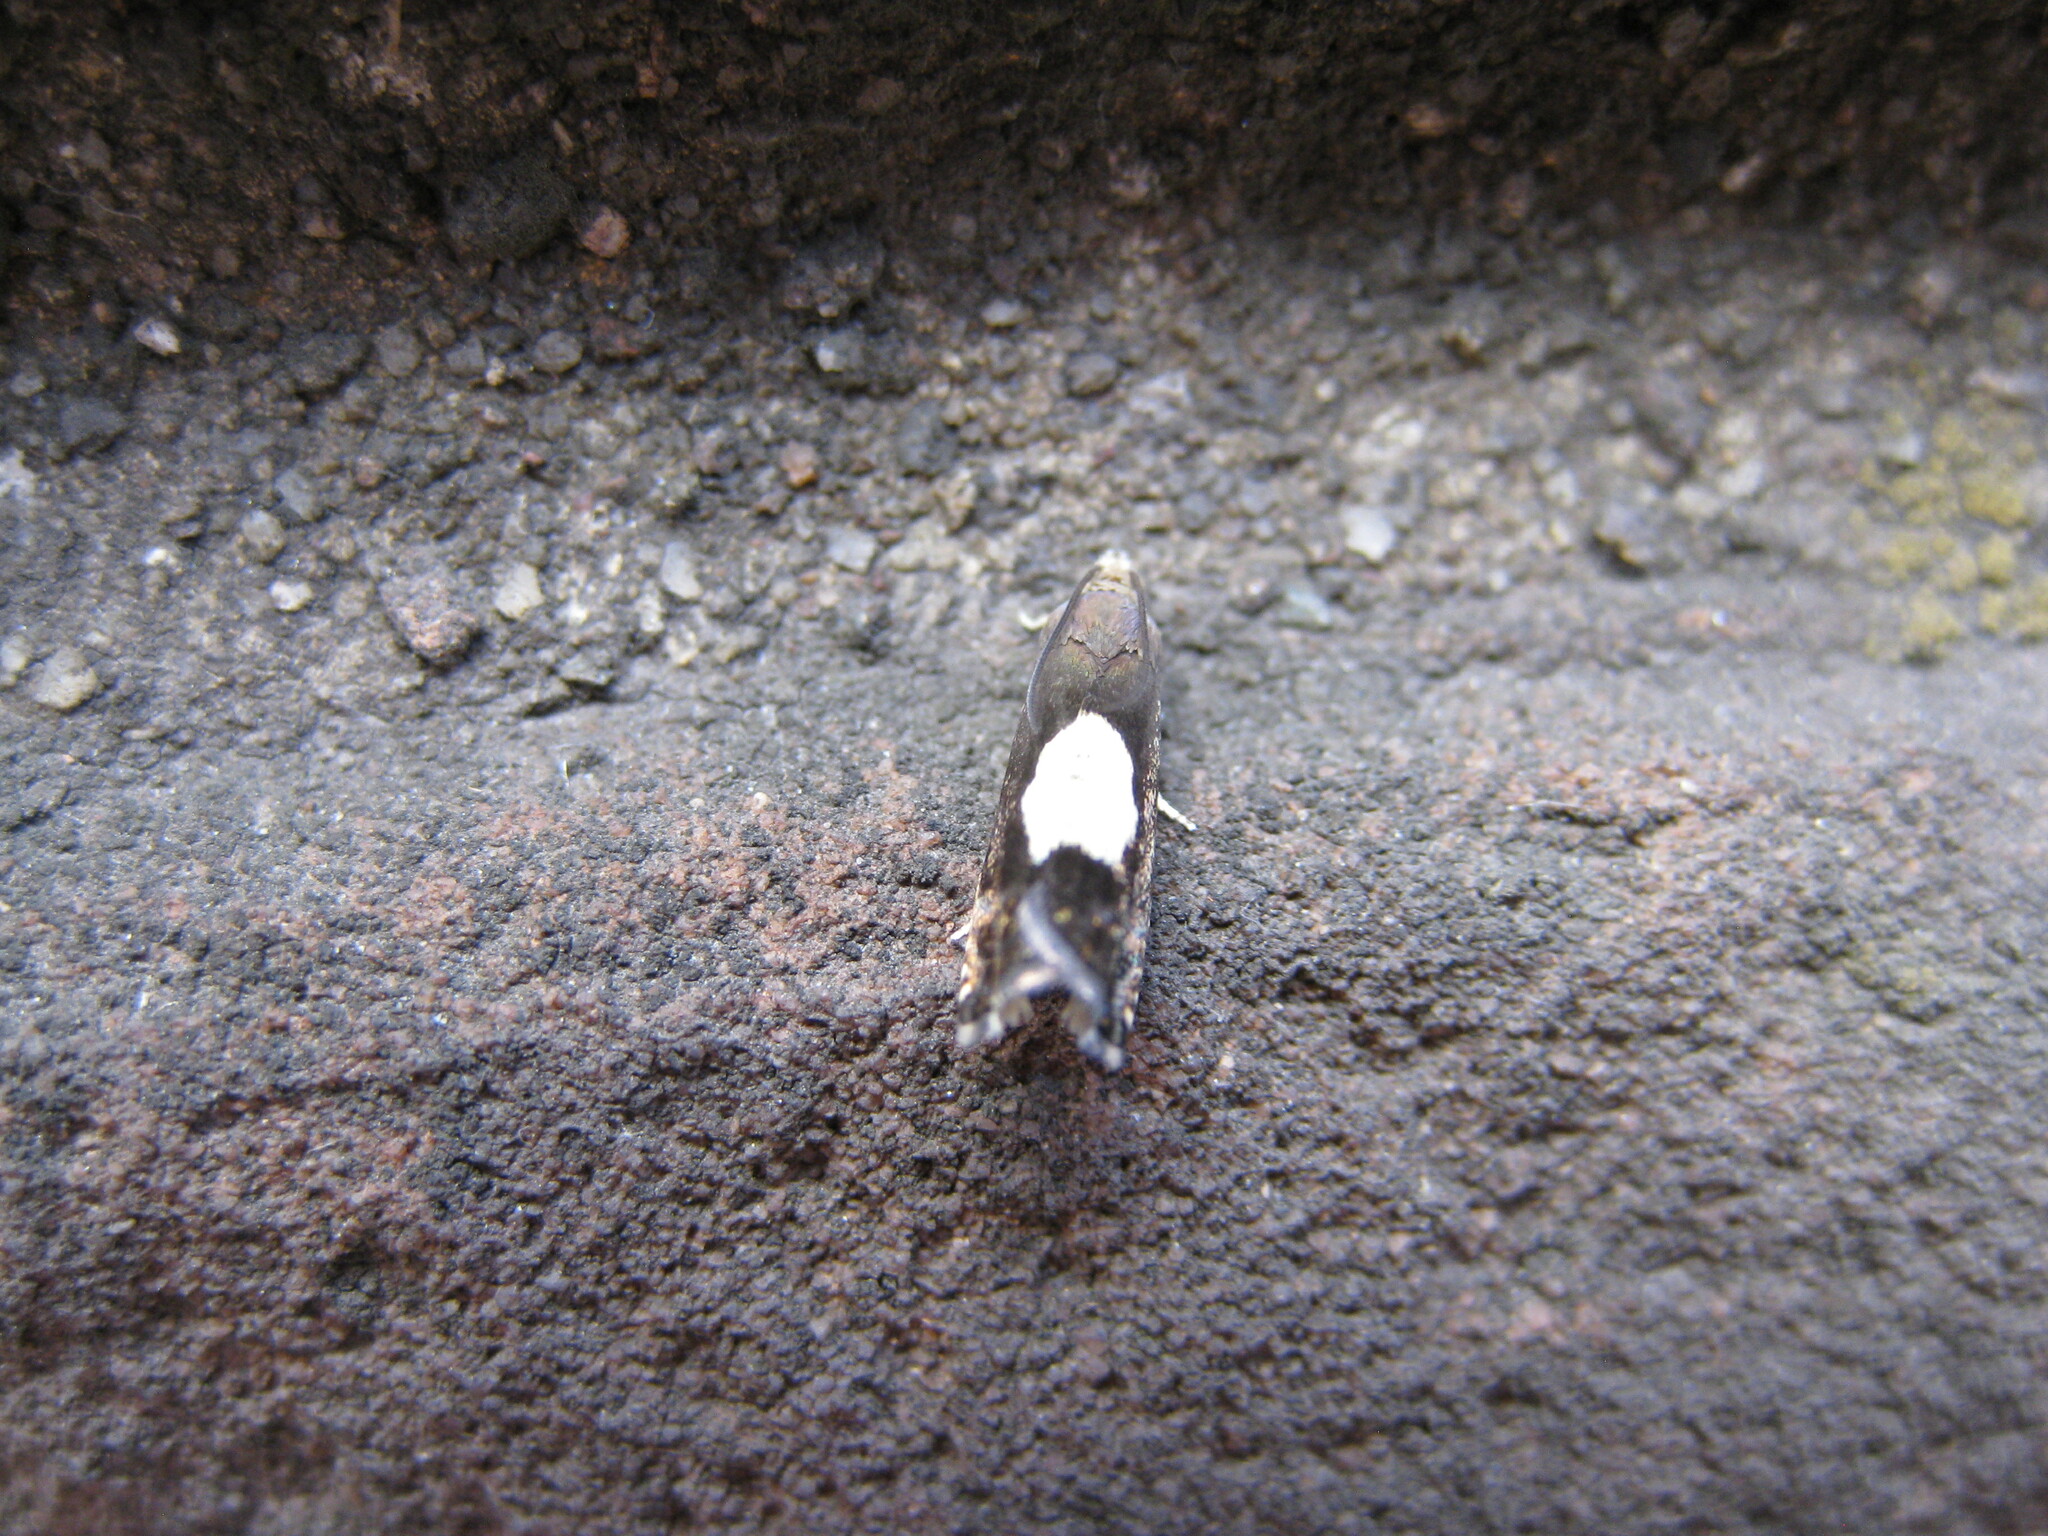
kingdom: Animalia
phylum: Arthropoda
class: Insecta
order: Lepidoptera
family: Tortricidae
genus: Pammene
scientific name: Pammene regiana
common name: Regal piercer
